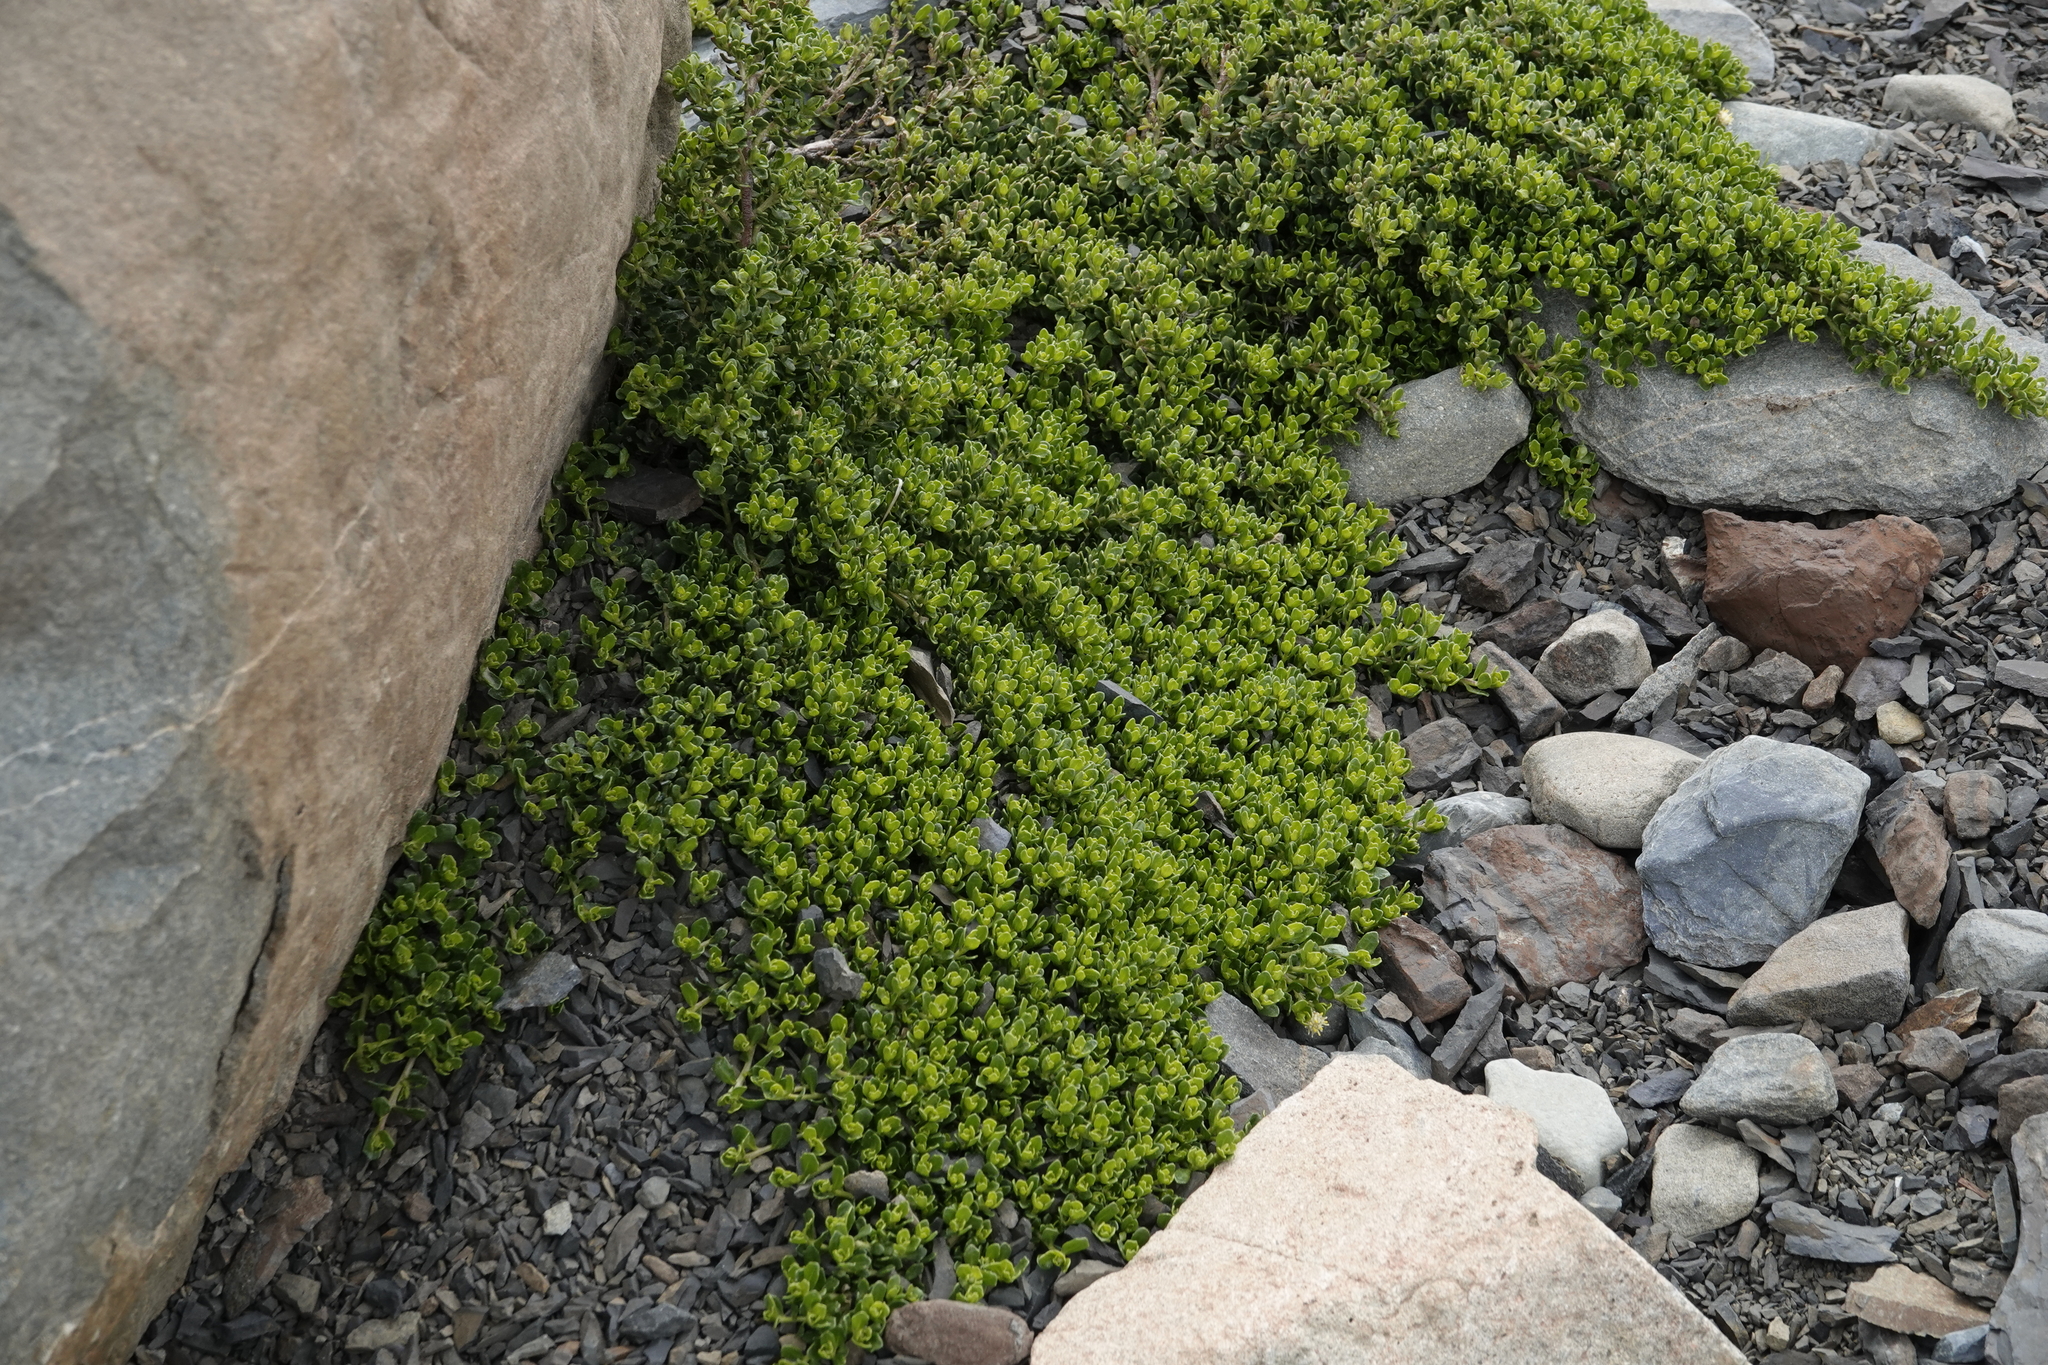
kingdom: Plantae
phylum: Tracheophyta
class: Magnoliopsida
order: Asterales
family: Asteraceae
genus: Baccharis
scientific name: Baccharis magellanica
